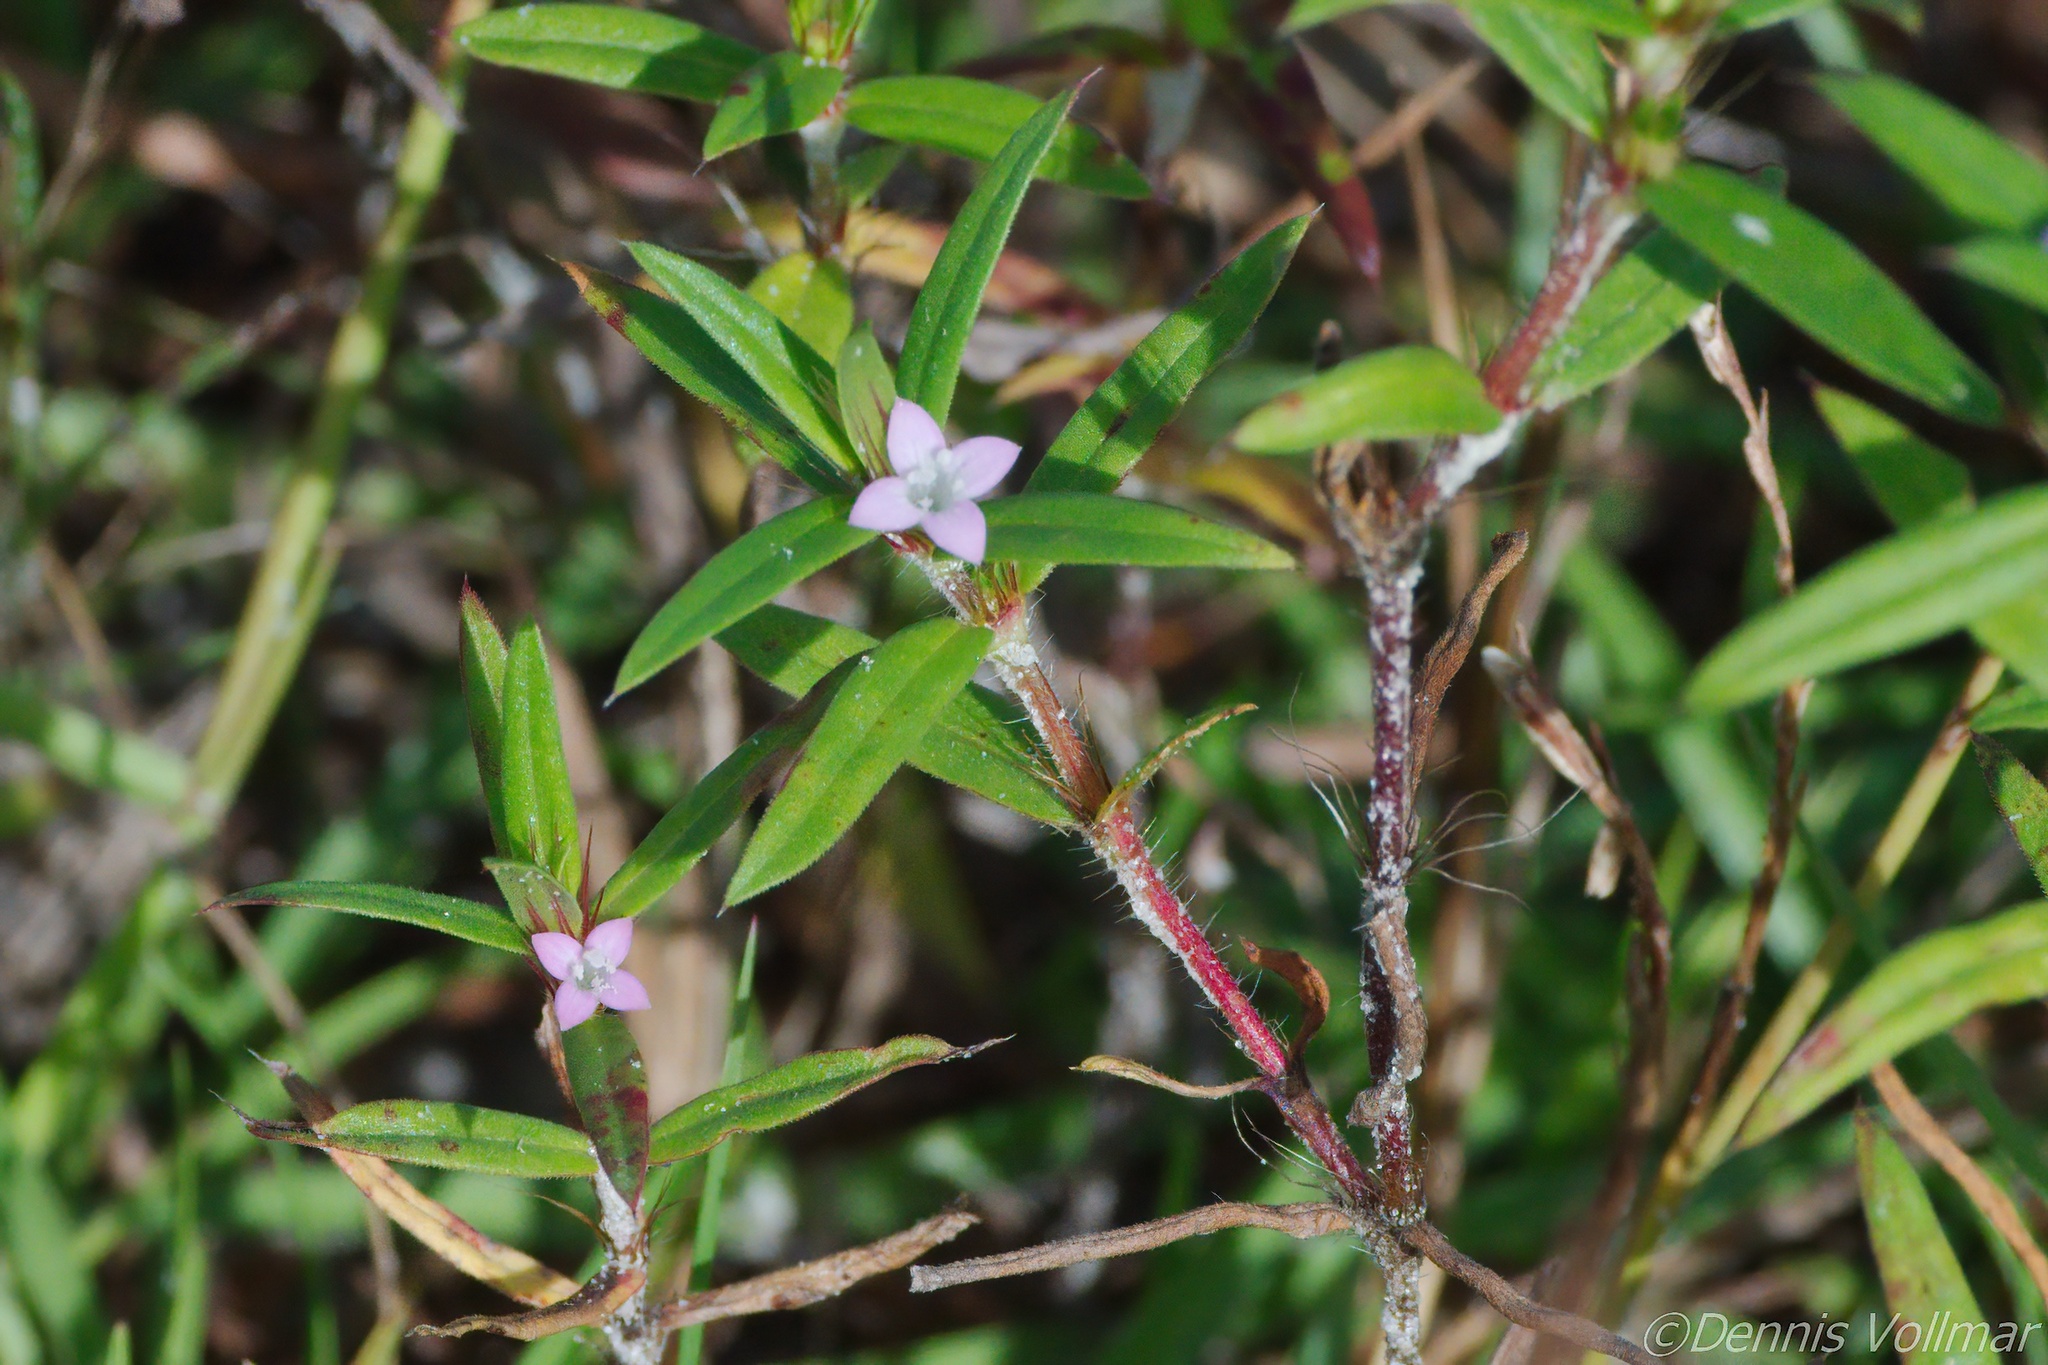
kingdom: Plantae
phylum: Tracheophyta
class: Magnoliopsida
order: Gentianales
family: Rubiaceae
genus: Hexasepalum
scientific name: Hexasepalum teres
